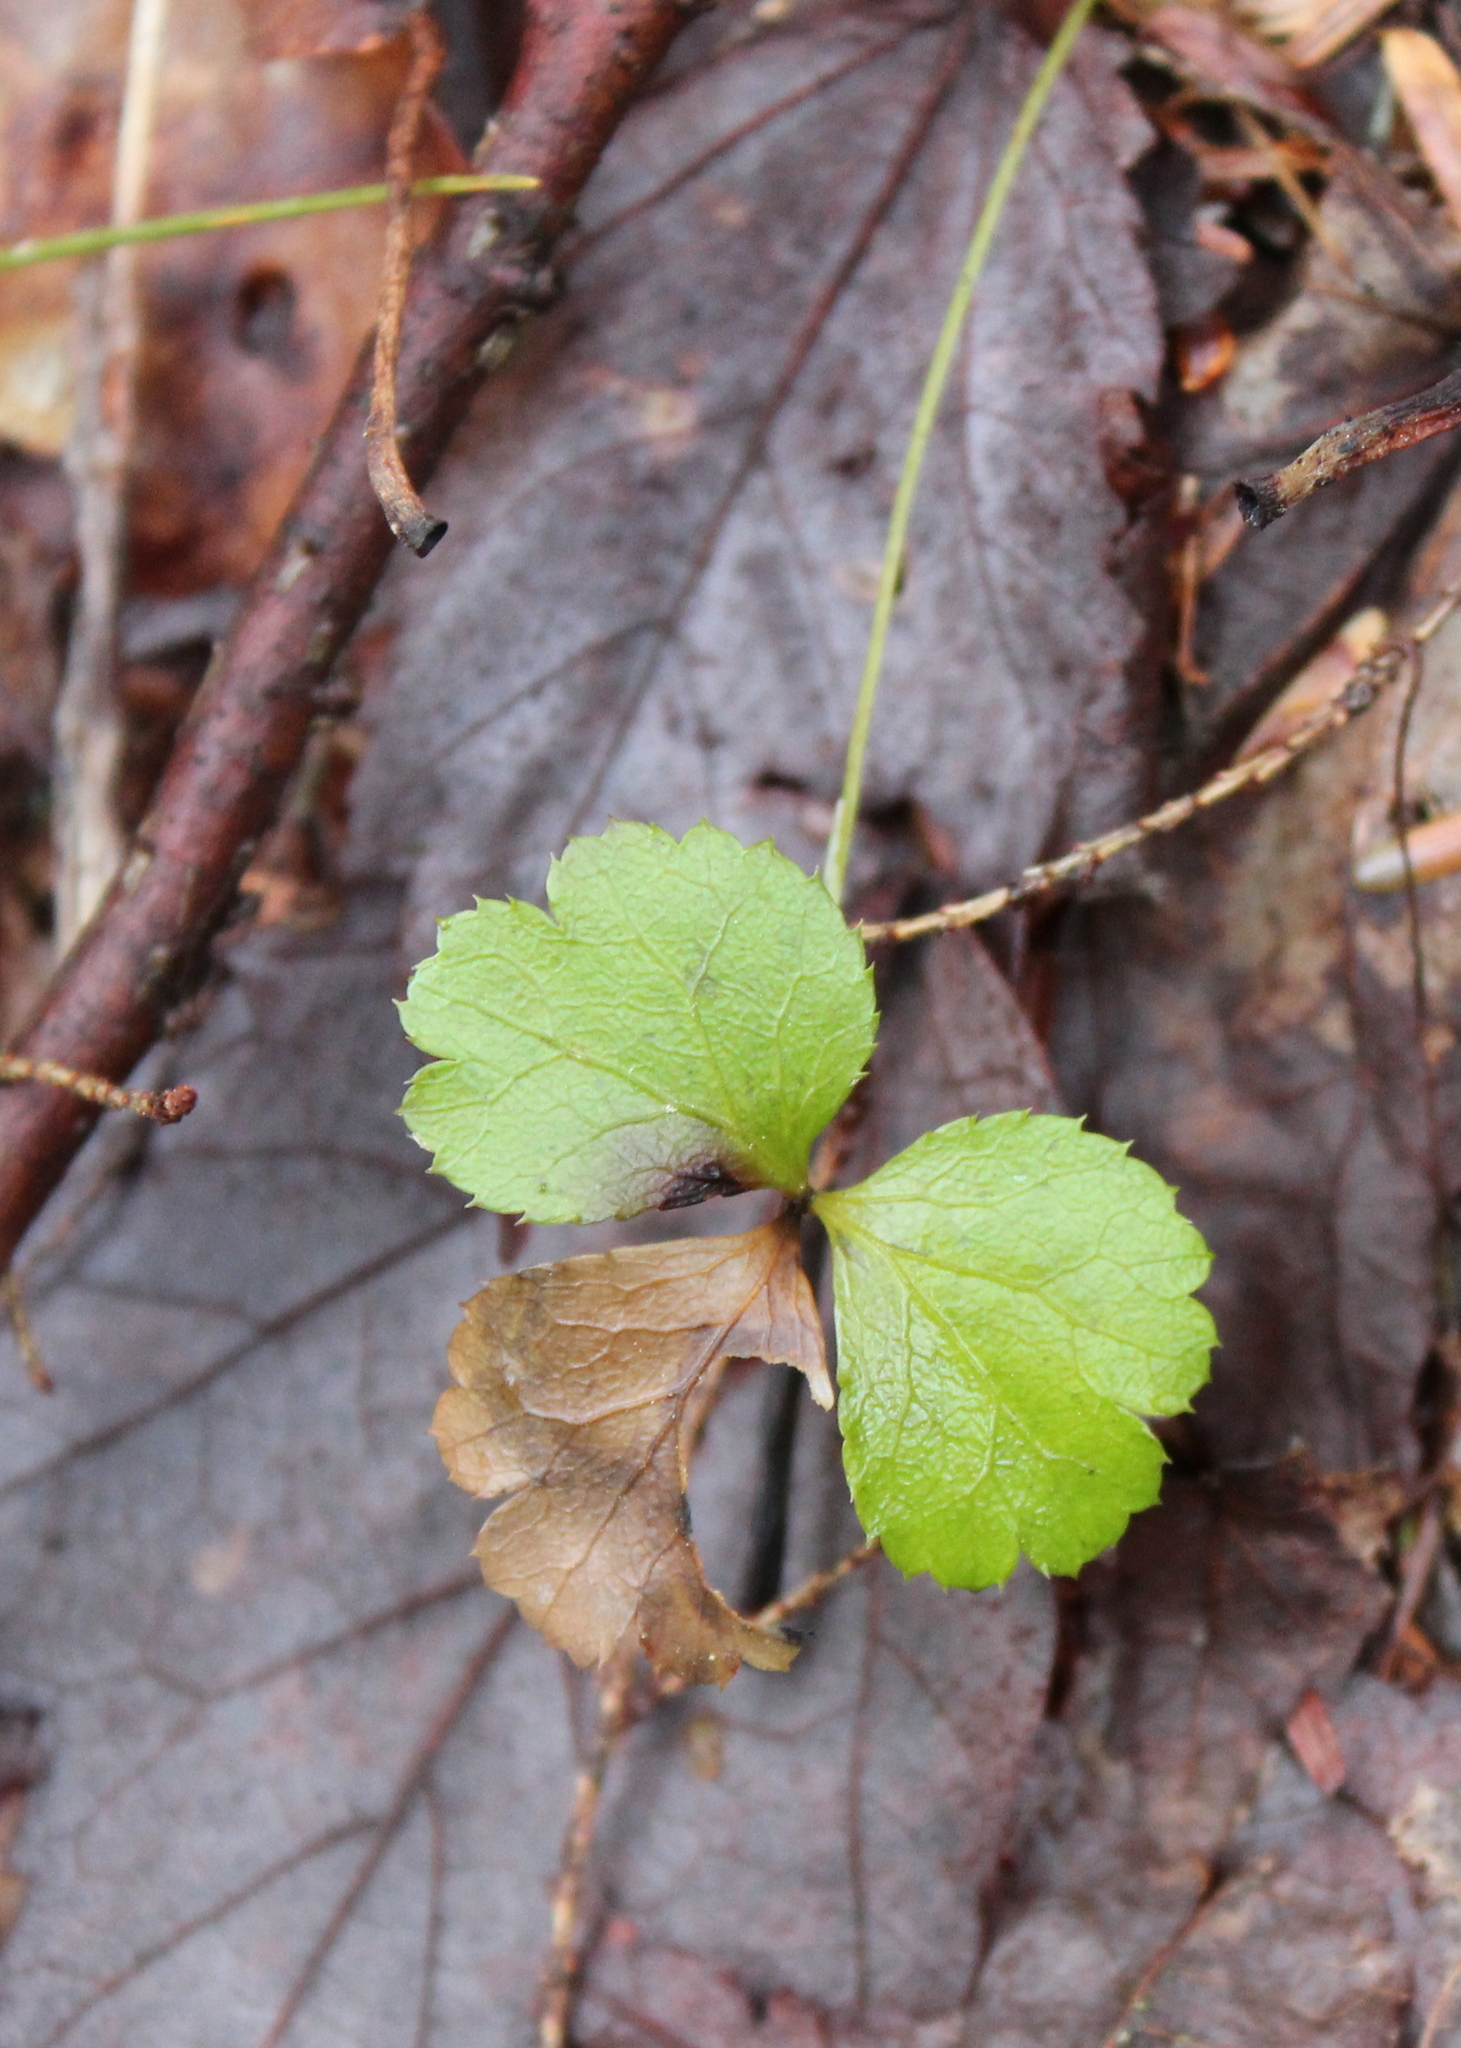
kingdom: Plantae
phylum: Tracheophyta
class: Magnoliopsida
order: Ranunculales
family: Ranunculaceae
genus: Coptis
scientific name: Coptis trifolia
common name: Canker-root
